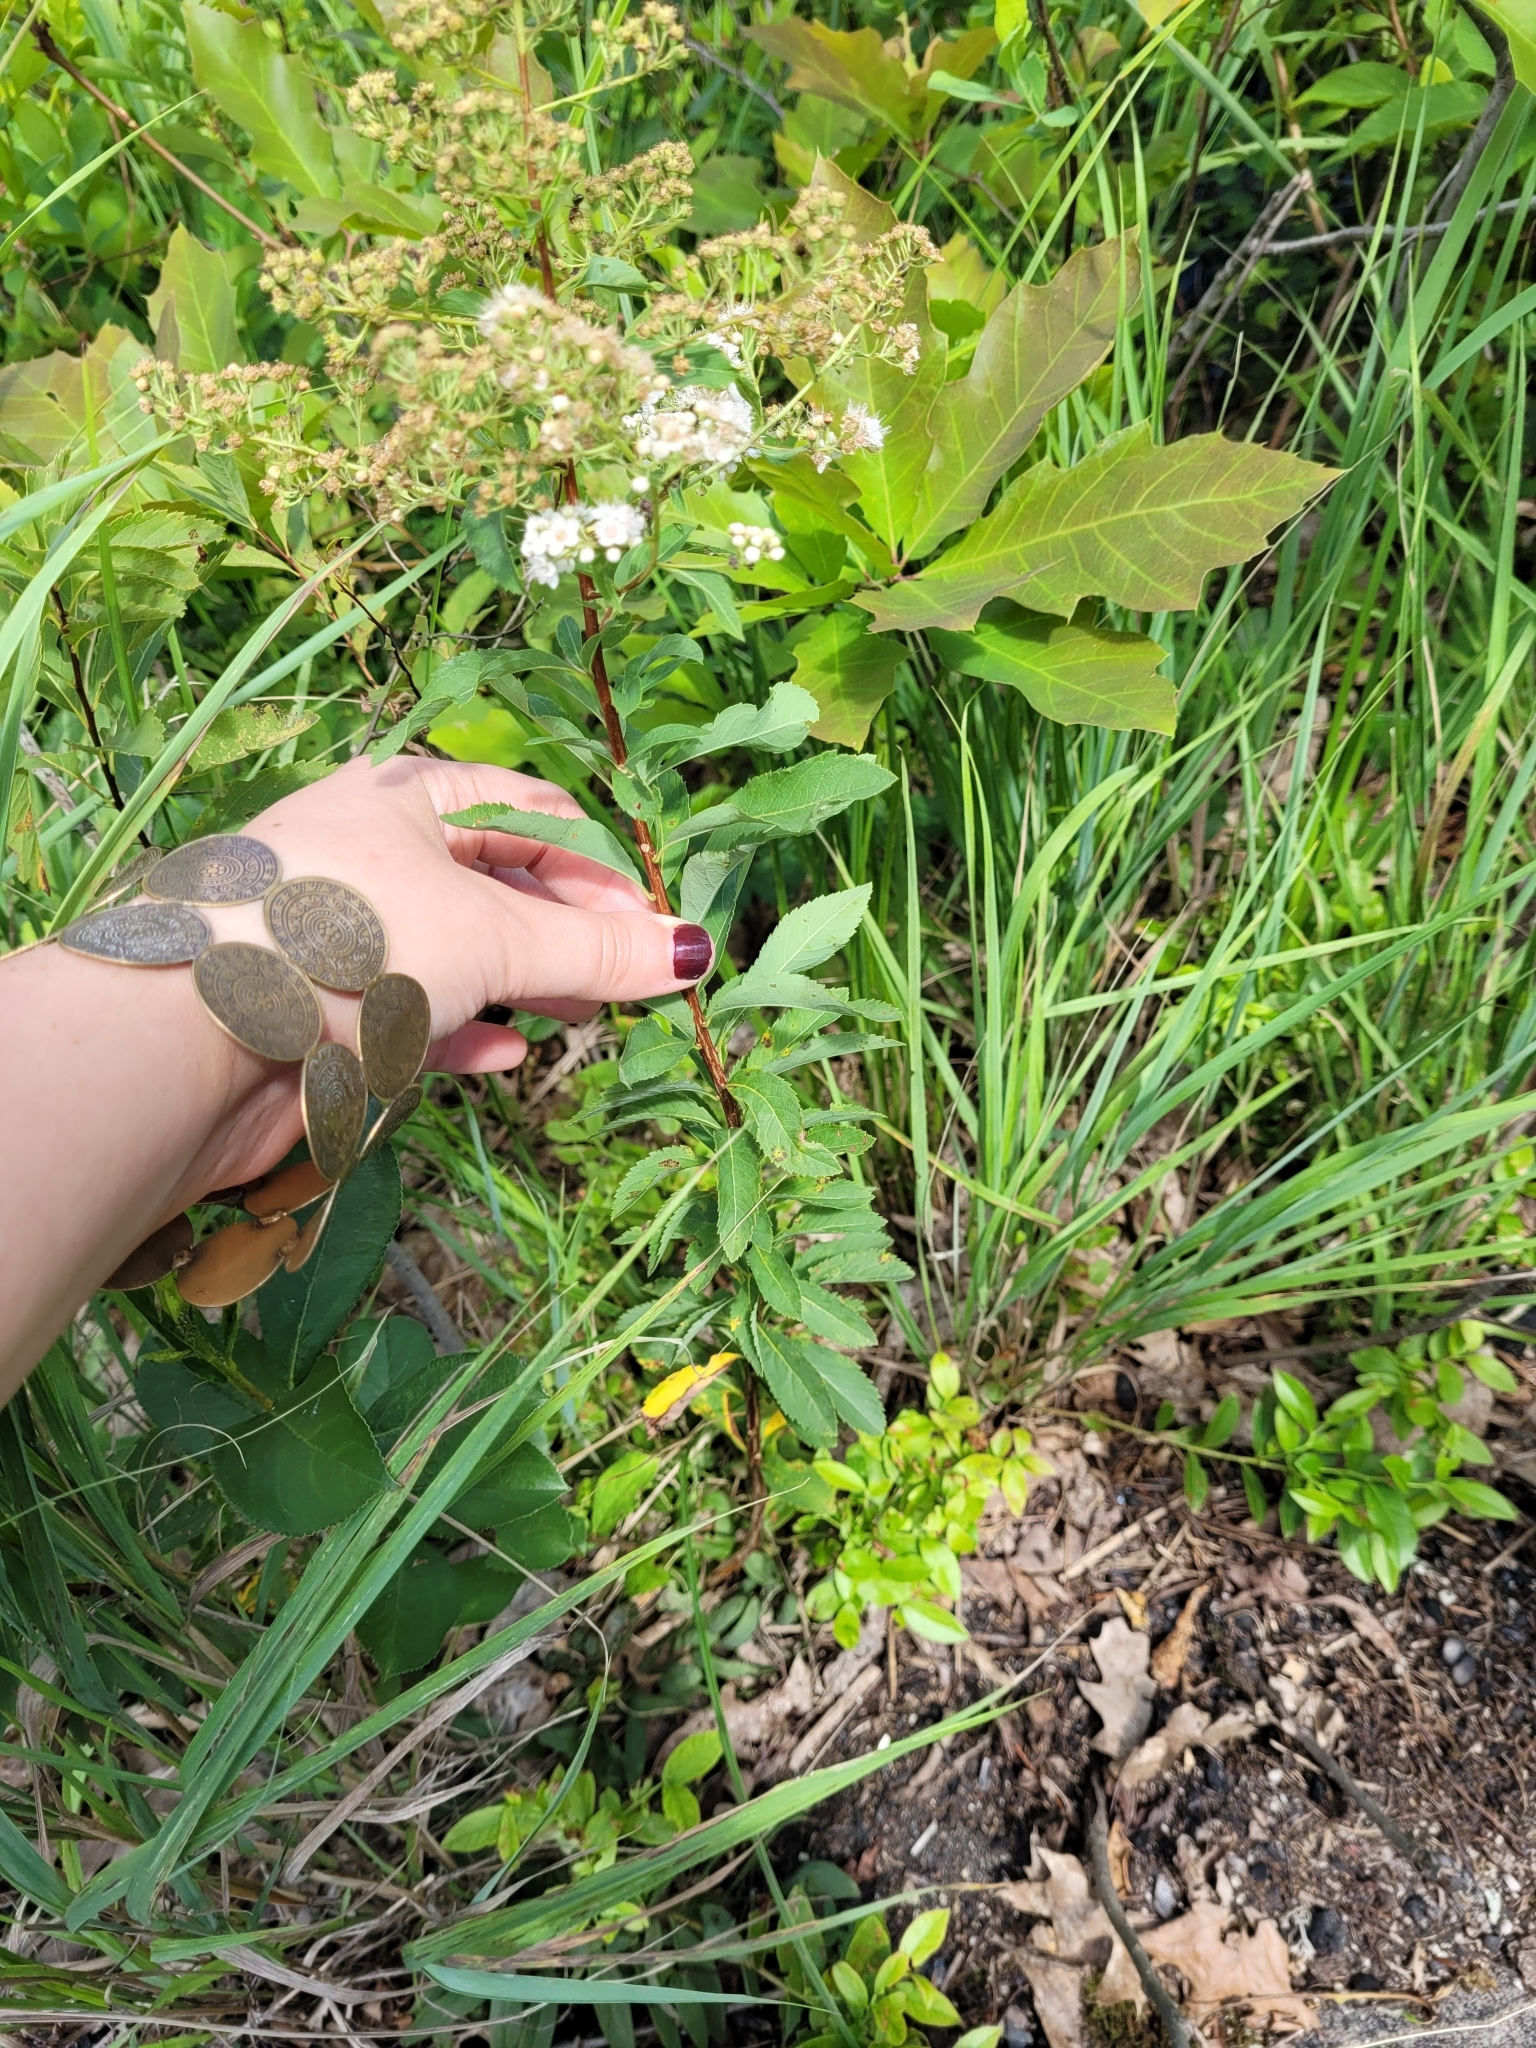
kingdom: Plantae
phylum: Tracheophyta
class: Magnoliopsida
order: Rosales
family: Rosaceae
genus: Spiraea
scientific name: Spiraea alba
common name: Pale bridewort
